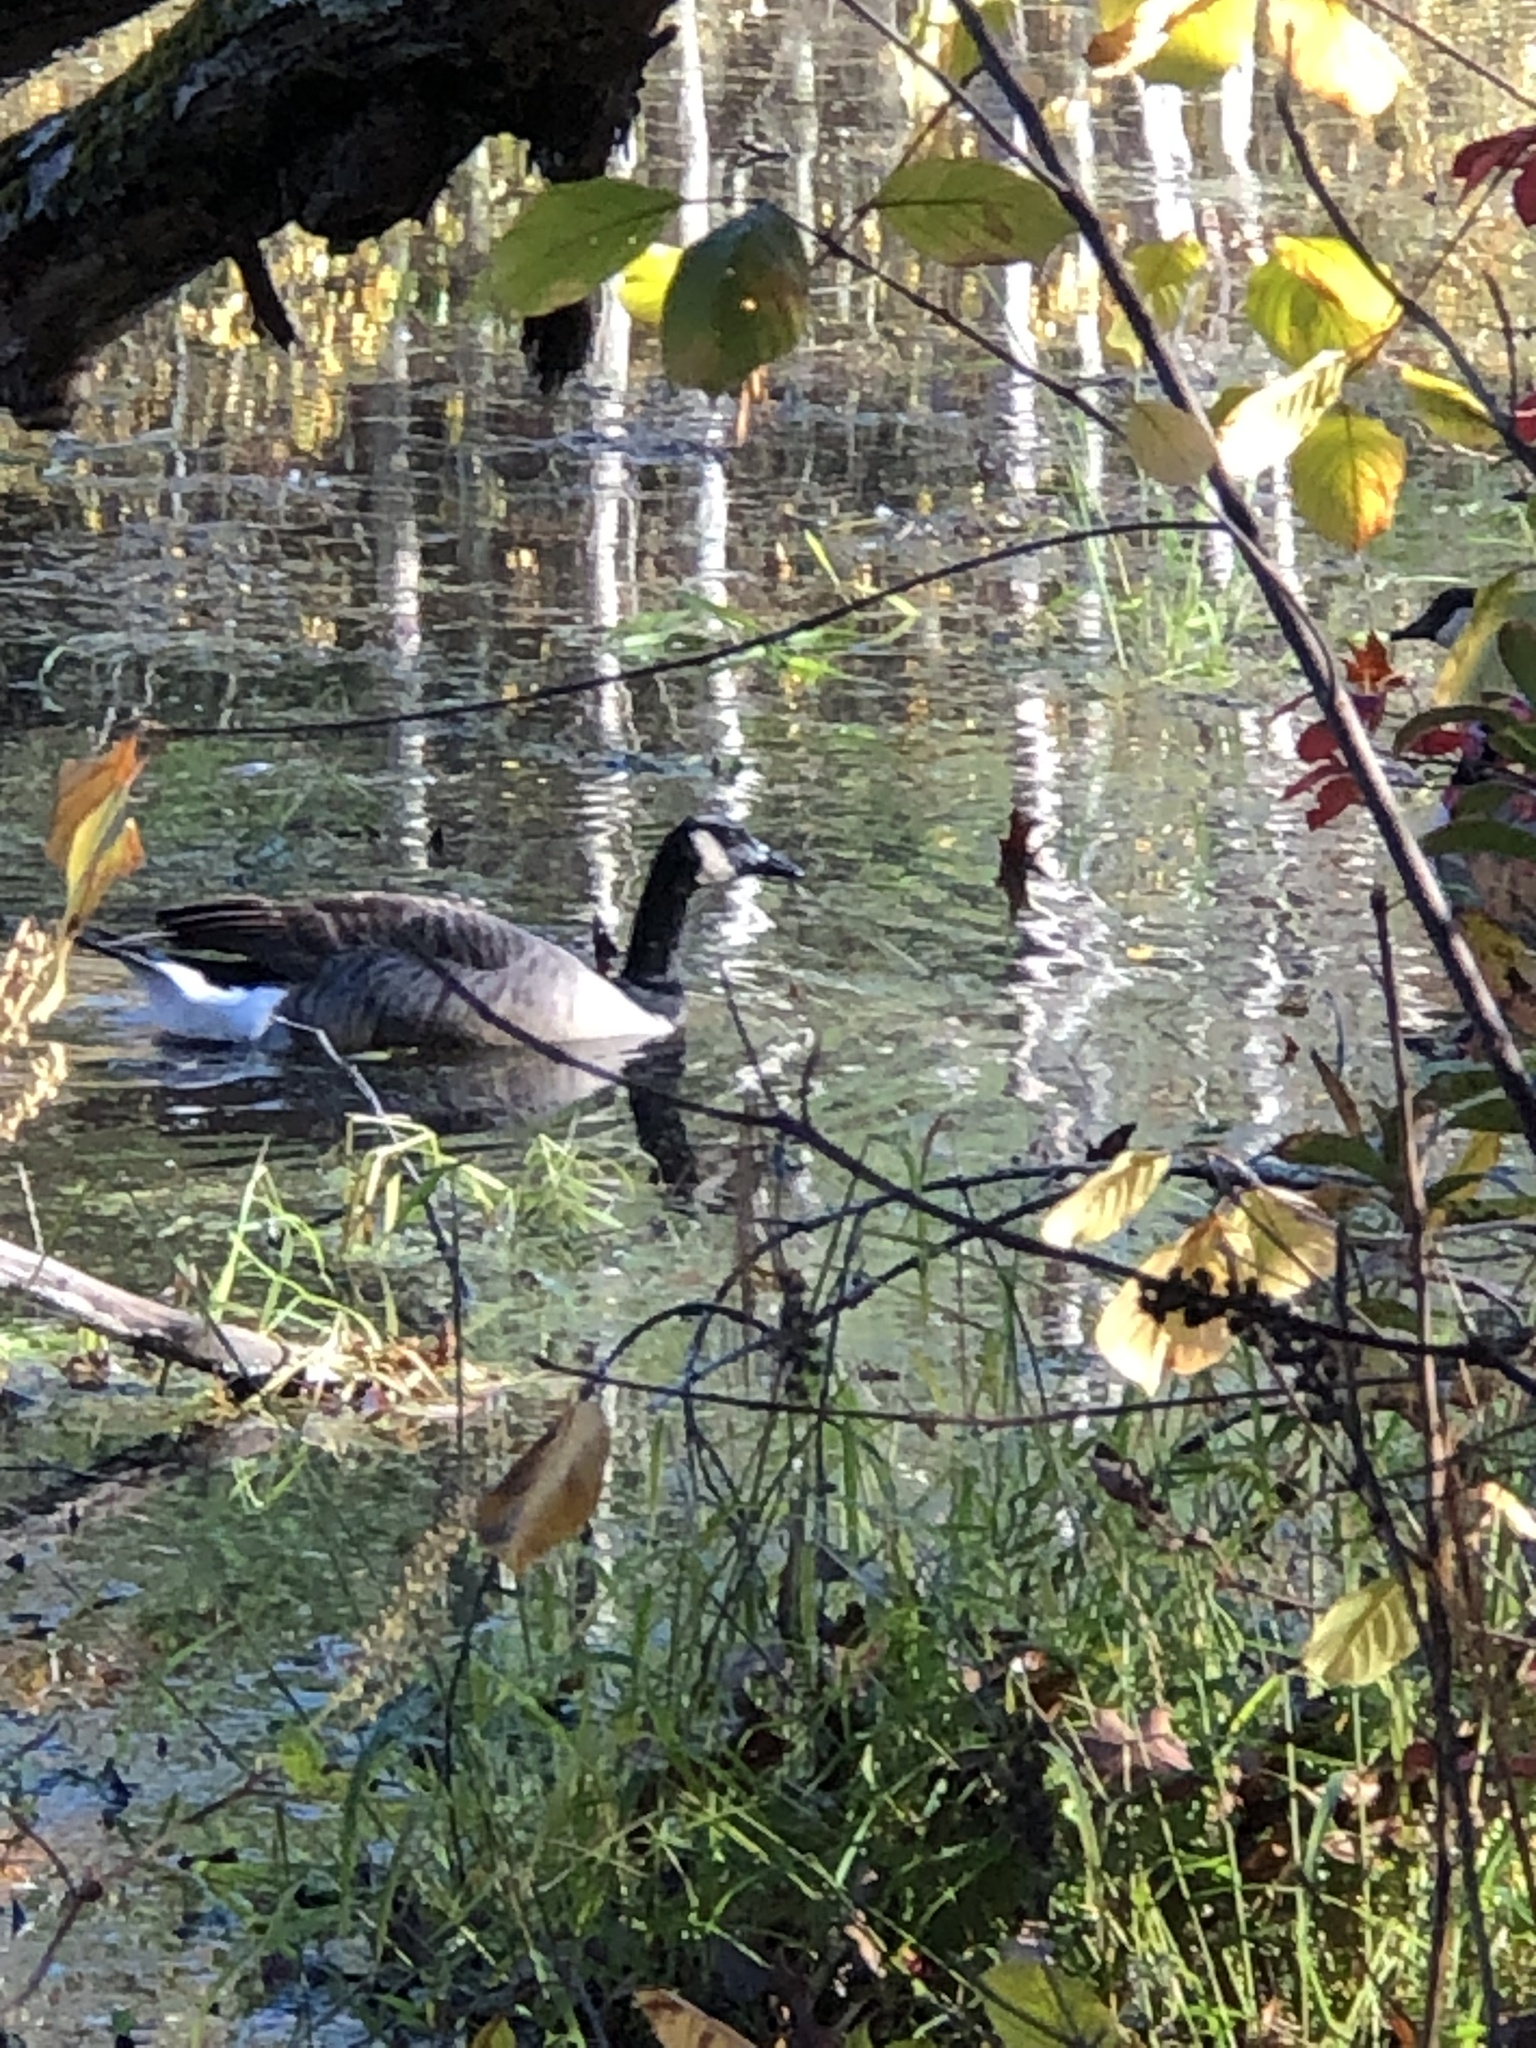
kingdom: Animalia
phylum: Chordata
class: Aves
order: Anseriformes
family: Anatidae
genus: Branta
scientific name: Branta canadensis
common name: Canada goose
